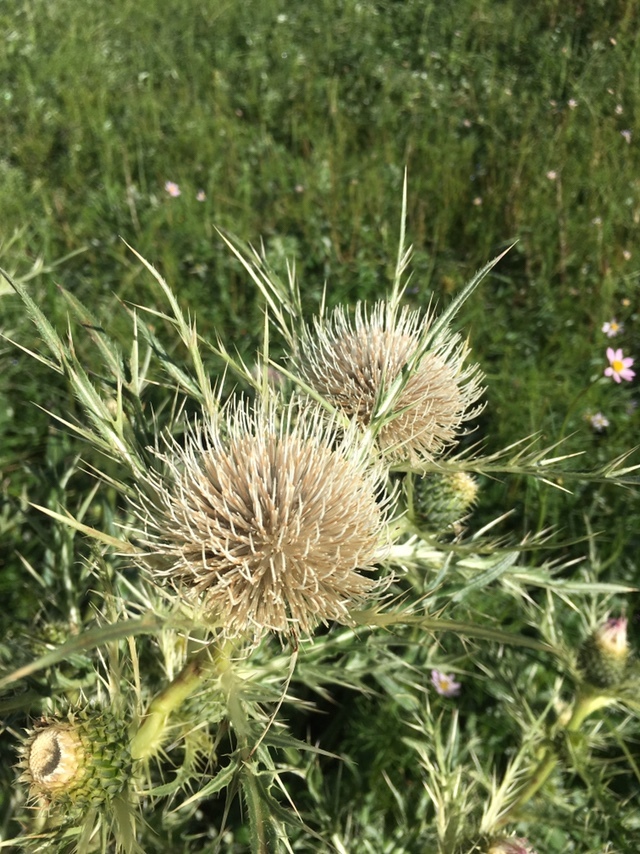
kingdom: Plantae
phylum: Tracheophyta
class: Magnoliopsida
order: Asterales
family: Asteraceae
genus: Cirsium
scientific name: Cirsium scariosum
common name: Meadow thistle
